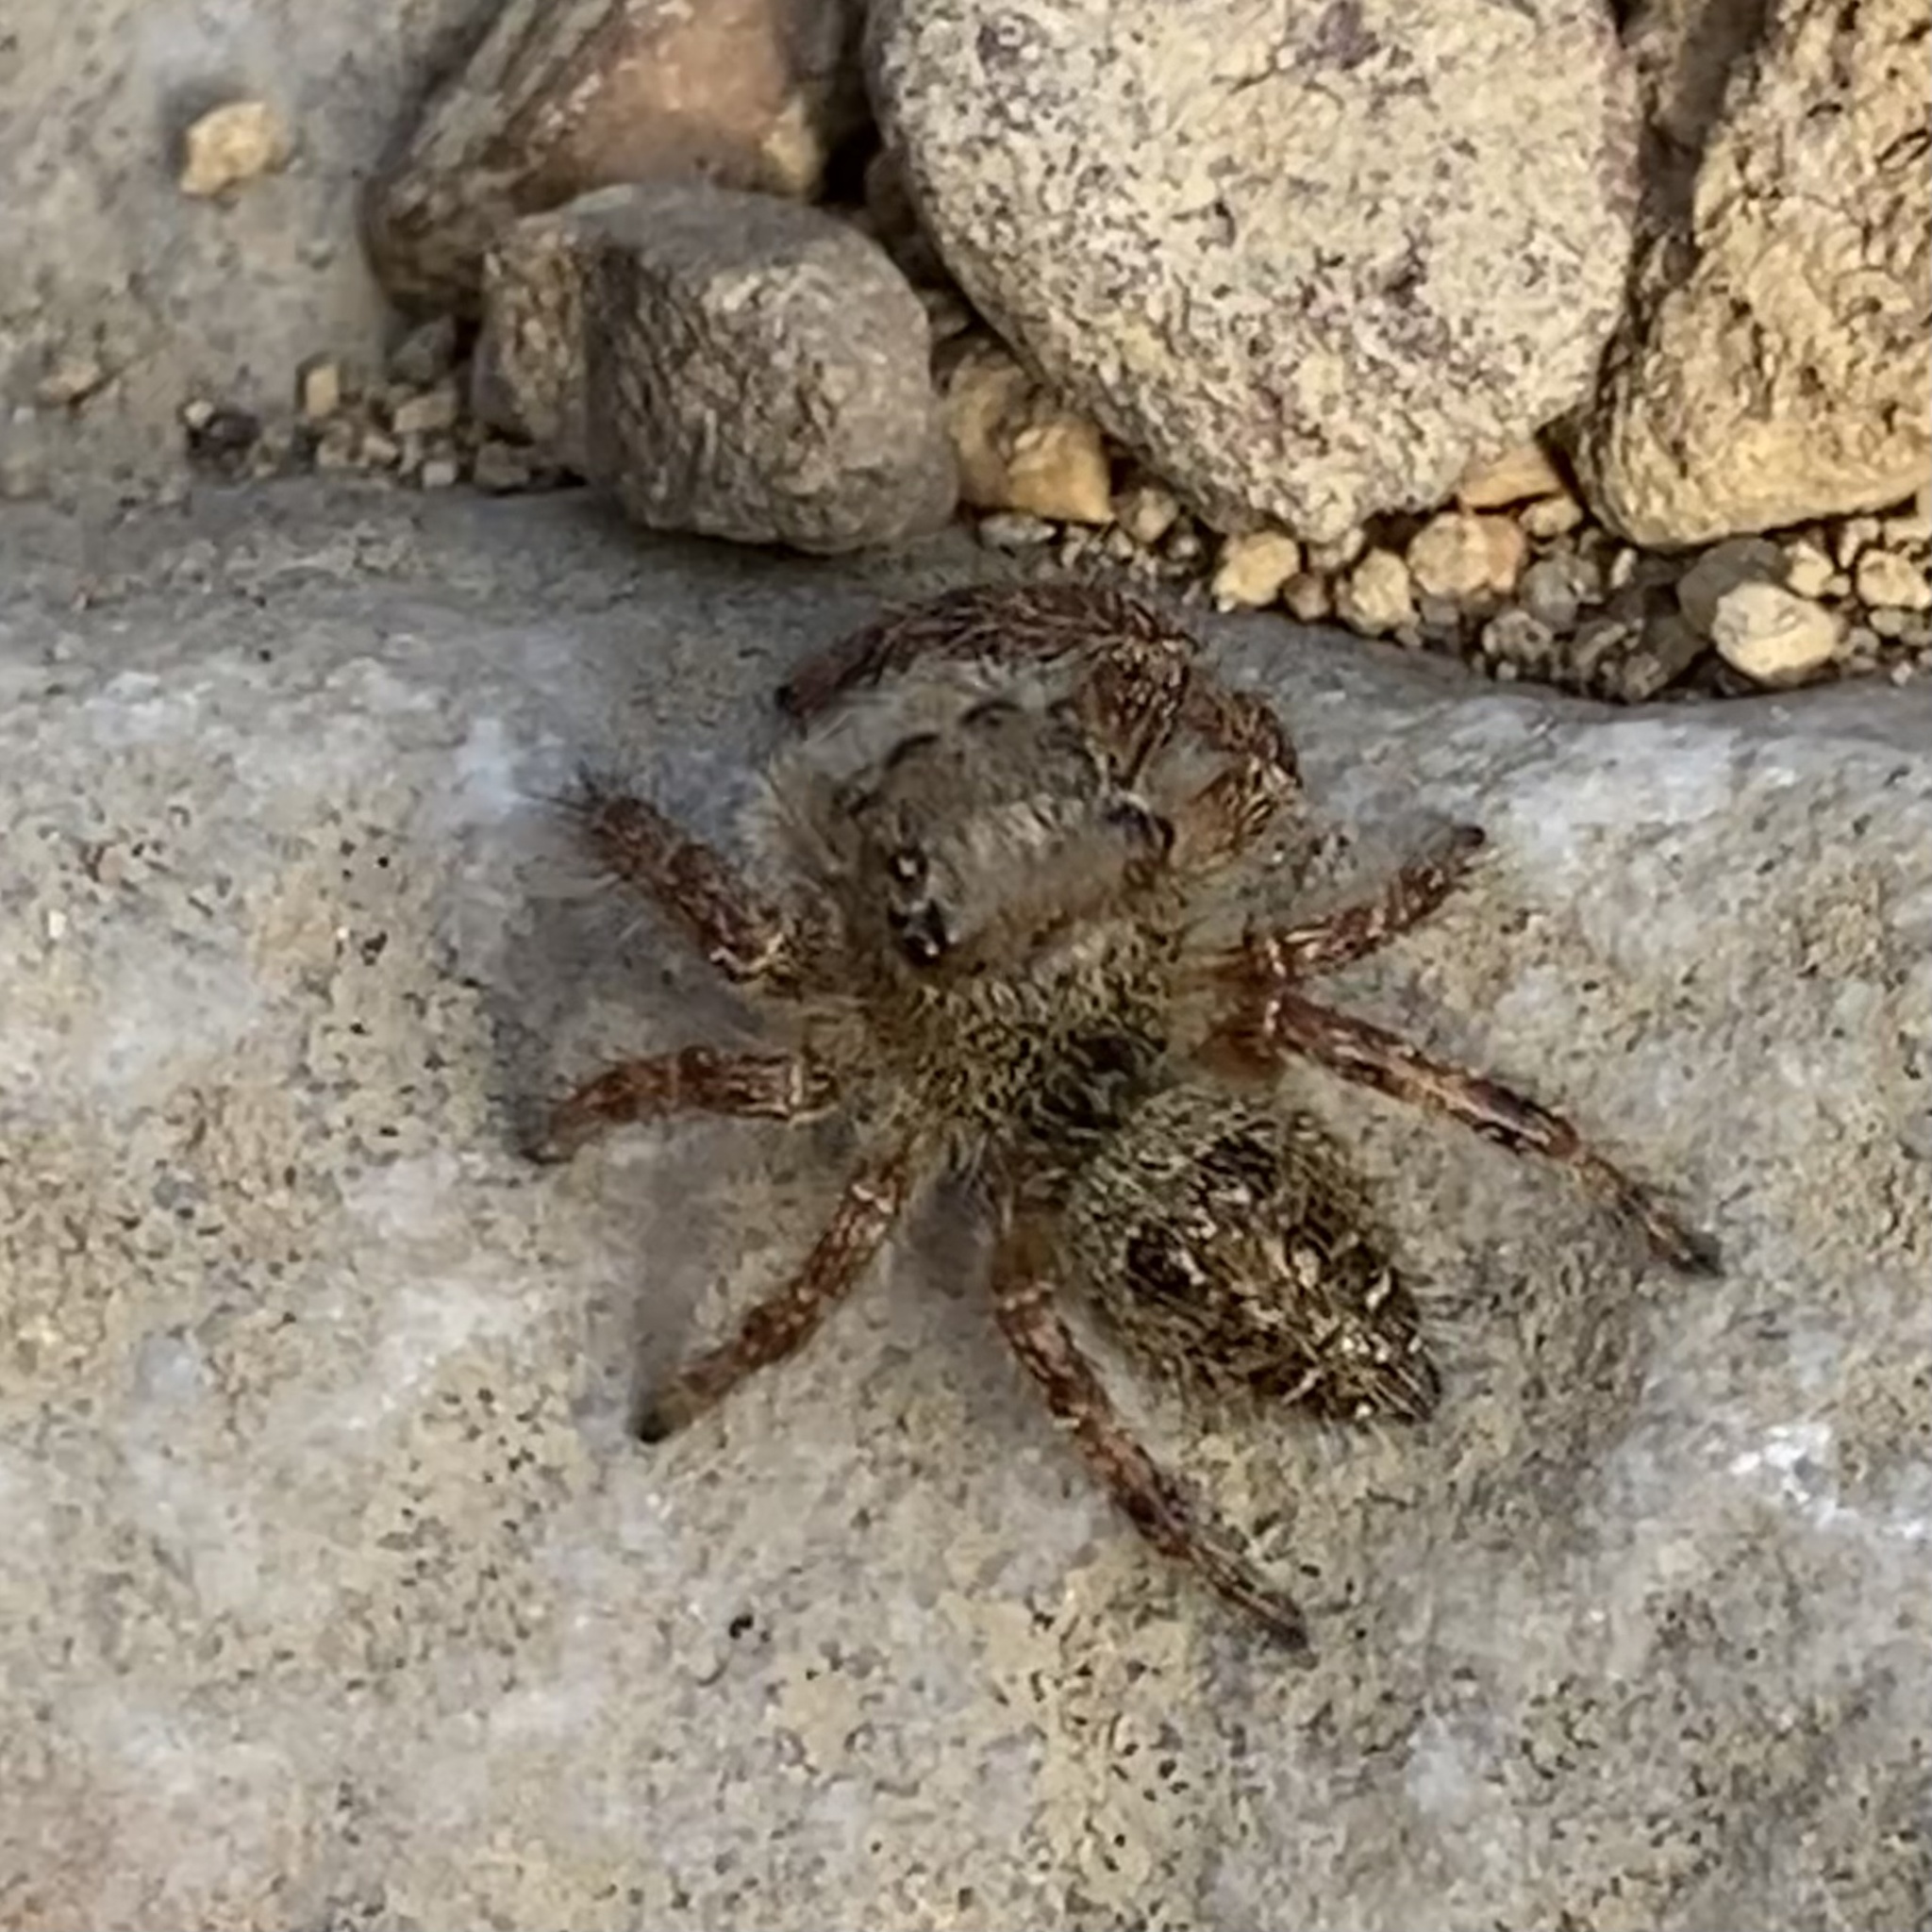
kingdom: Animalia
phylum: Arthropoda
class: Arachnida
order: Araneae
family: Salticidae
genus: Phidippus
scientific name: Phidippus princeps
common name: Grayish jumping spider
